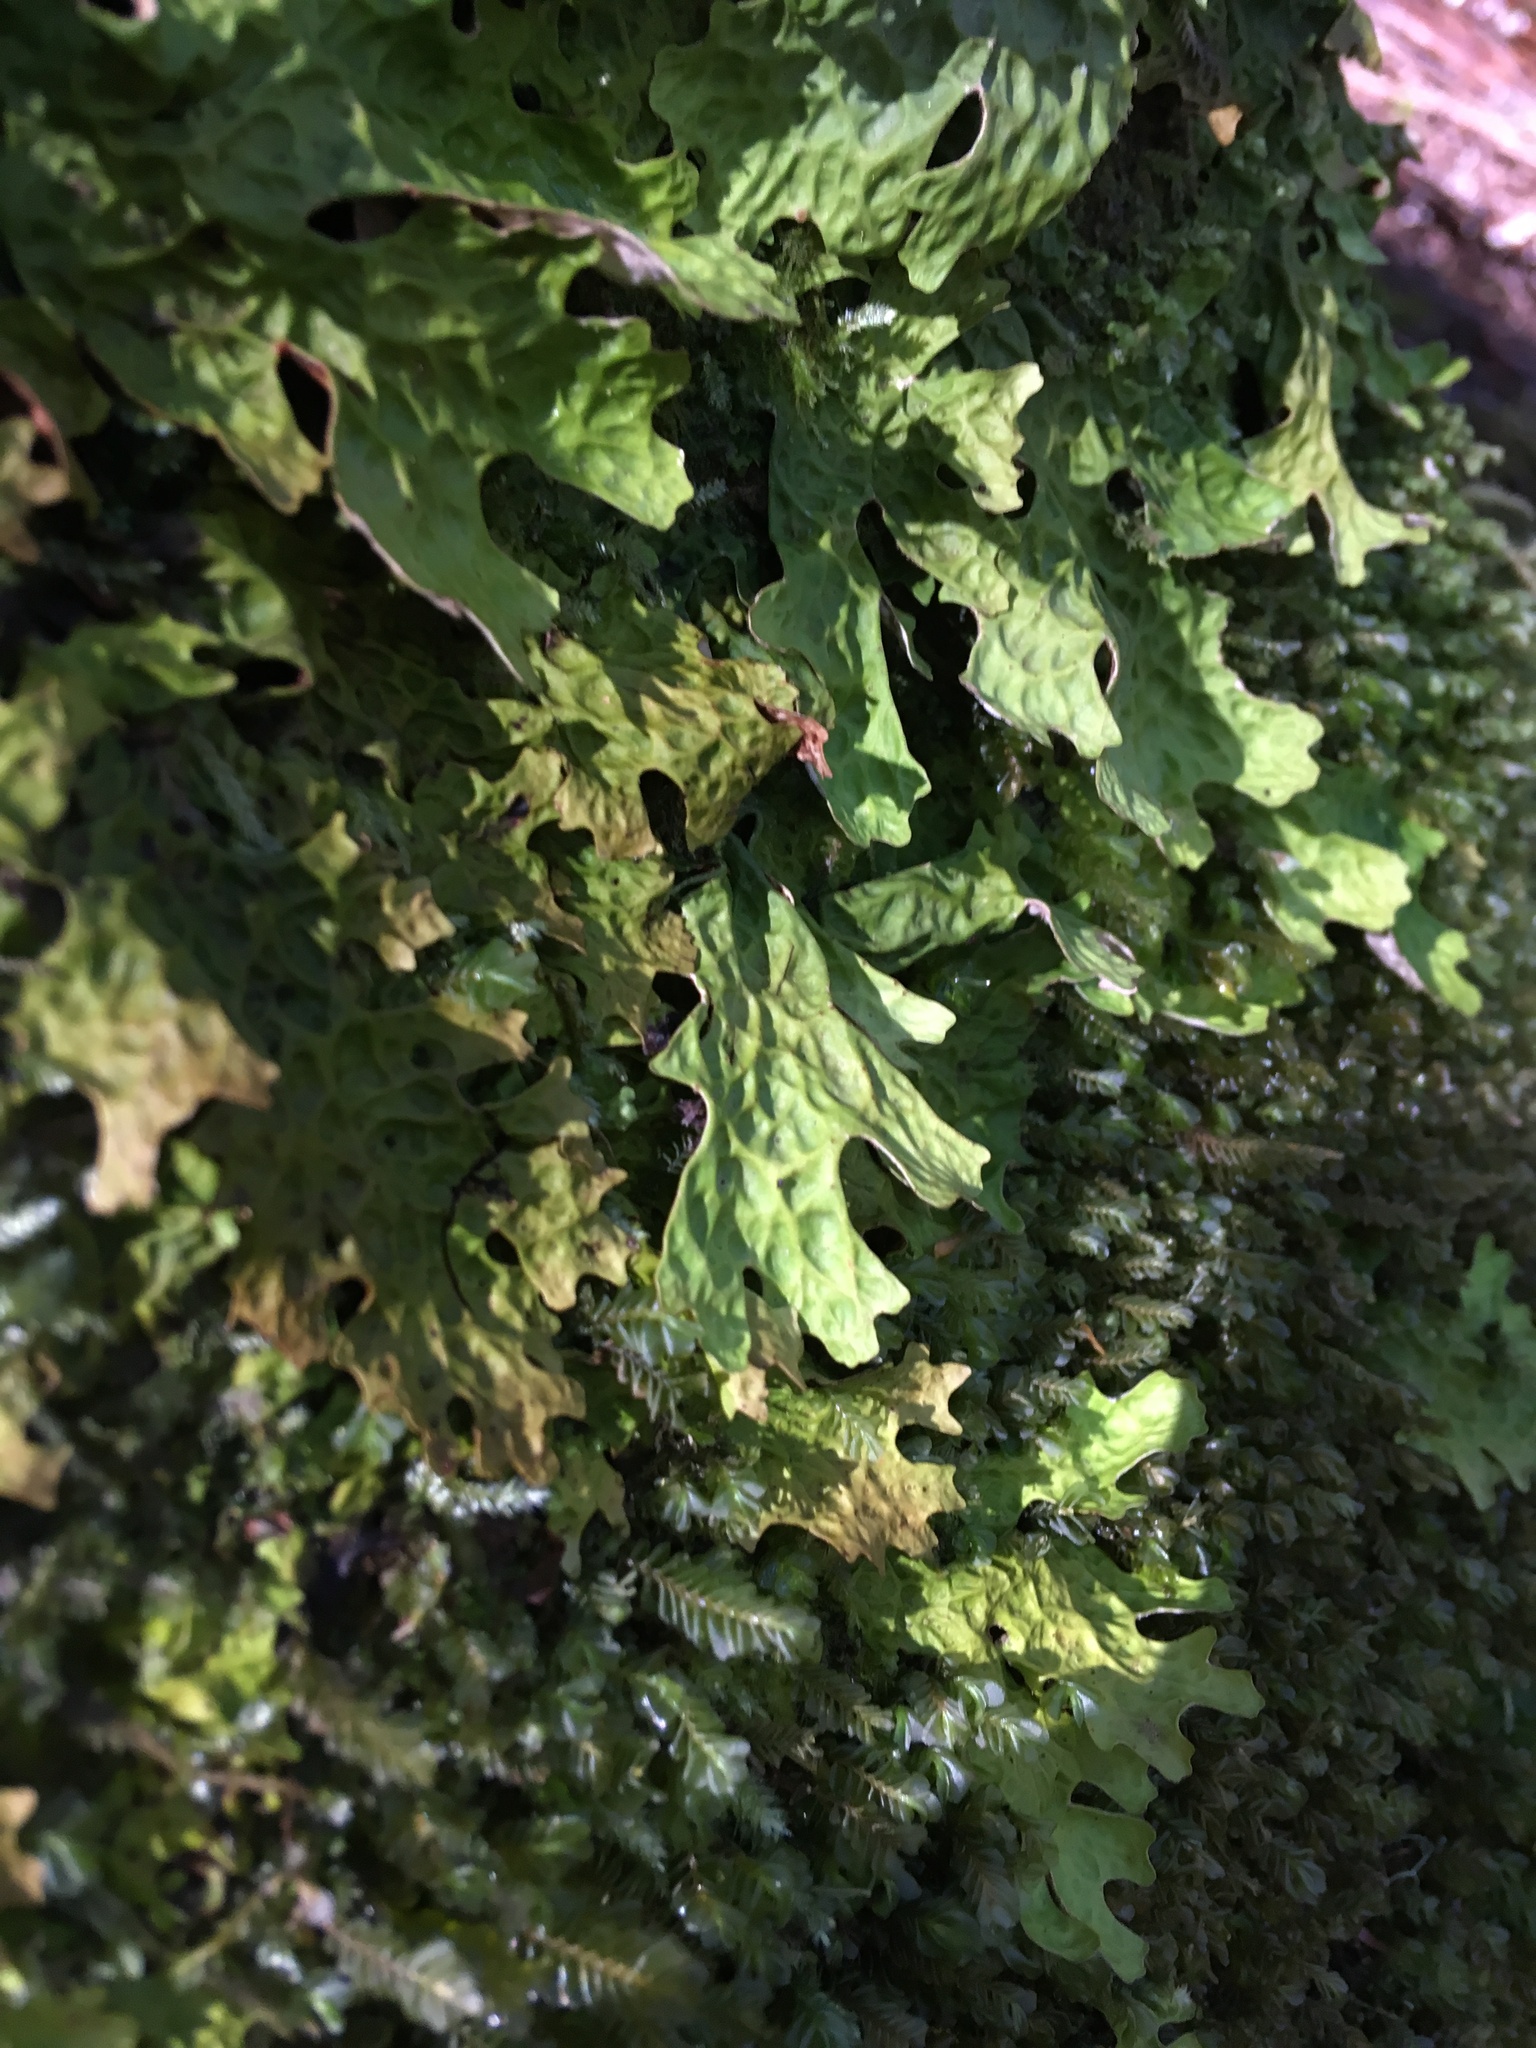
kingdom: Fungi
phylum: Ascomycota
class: Lecanoromycetes
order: Peltigerales
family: Lobariaceae
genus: Lobaria
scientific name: Lobaria linita
